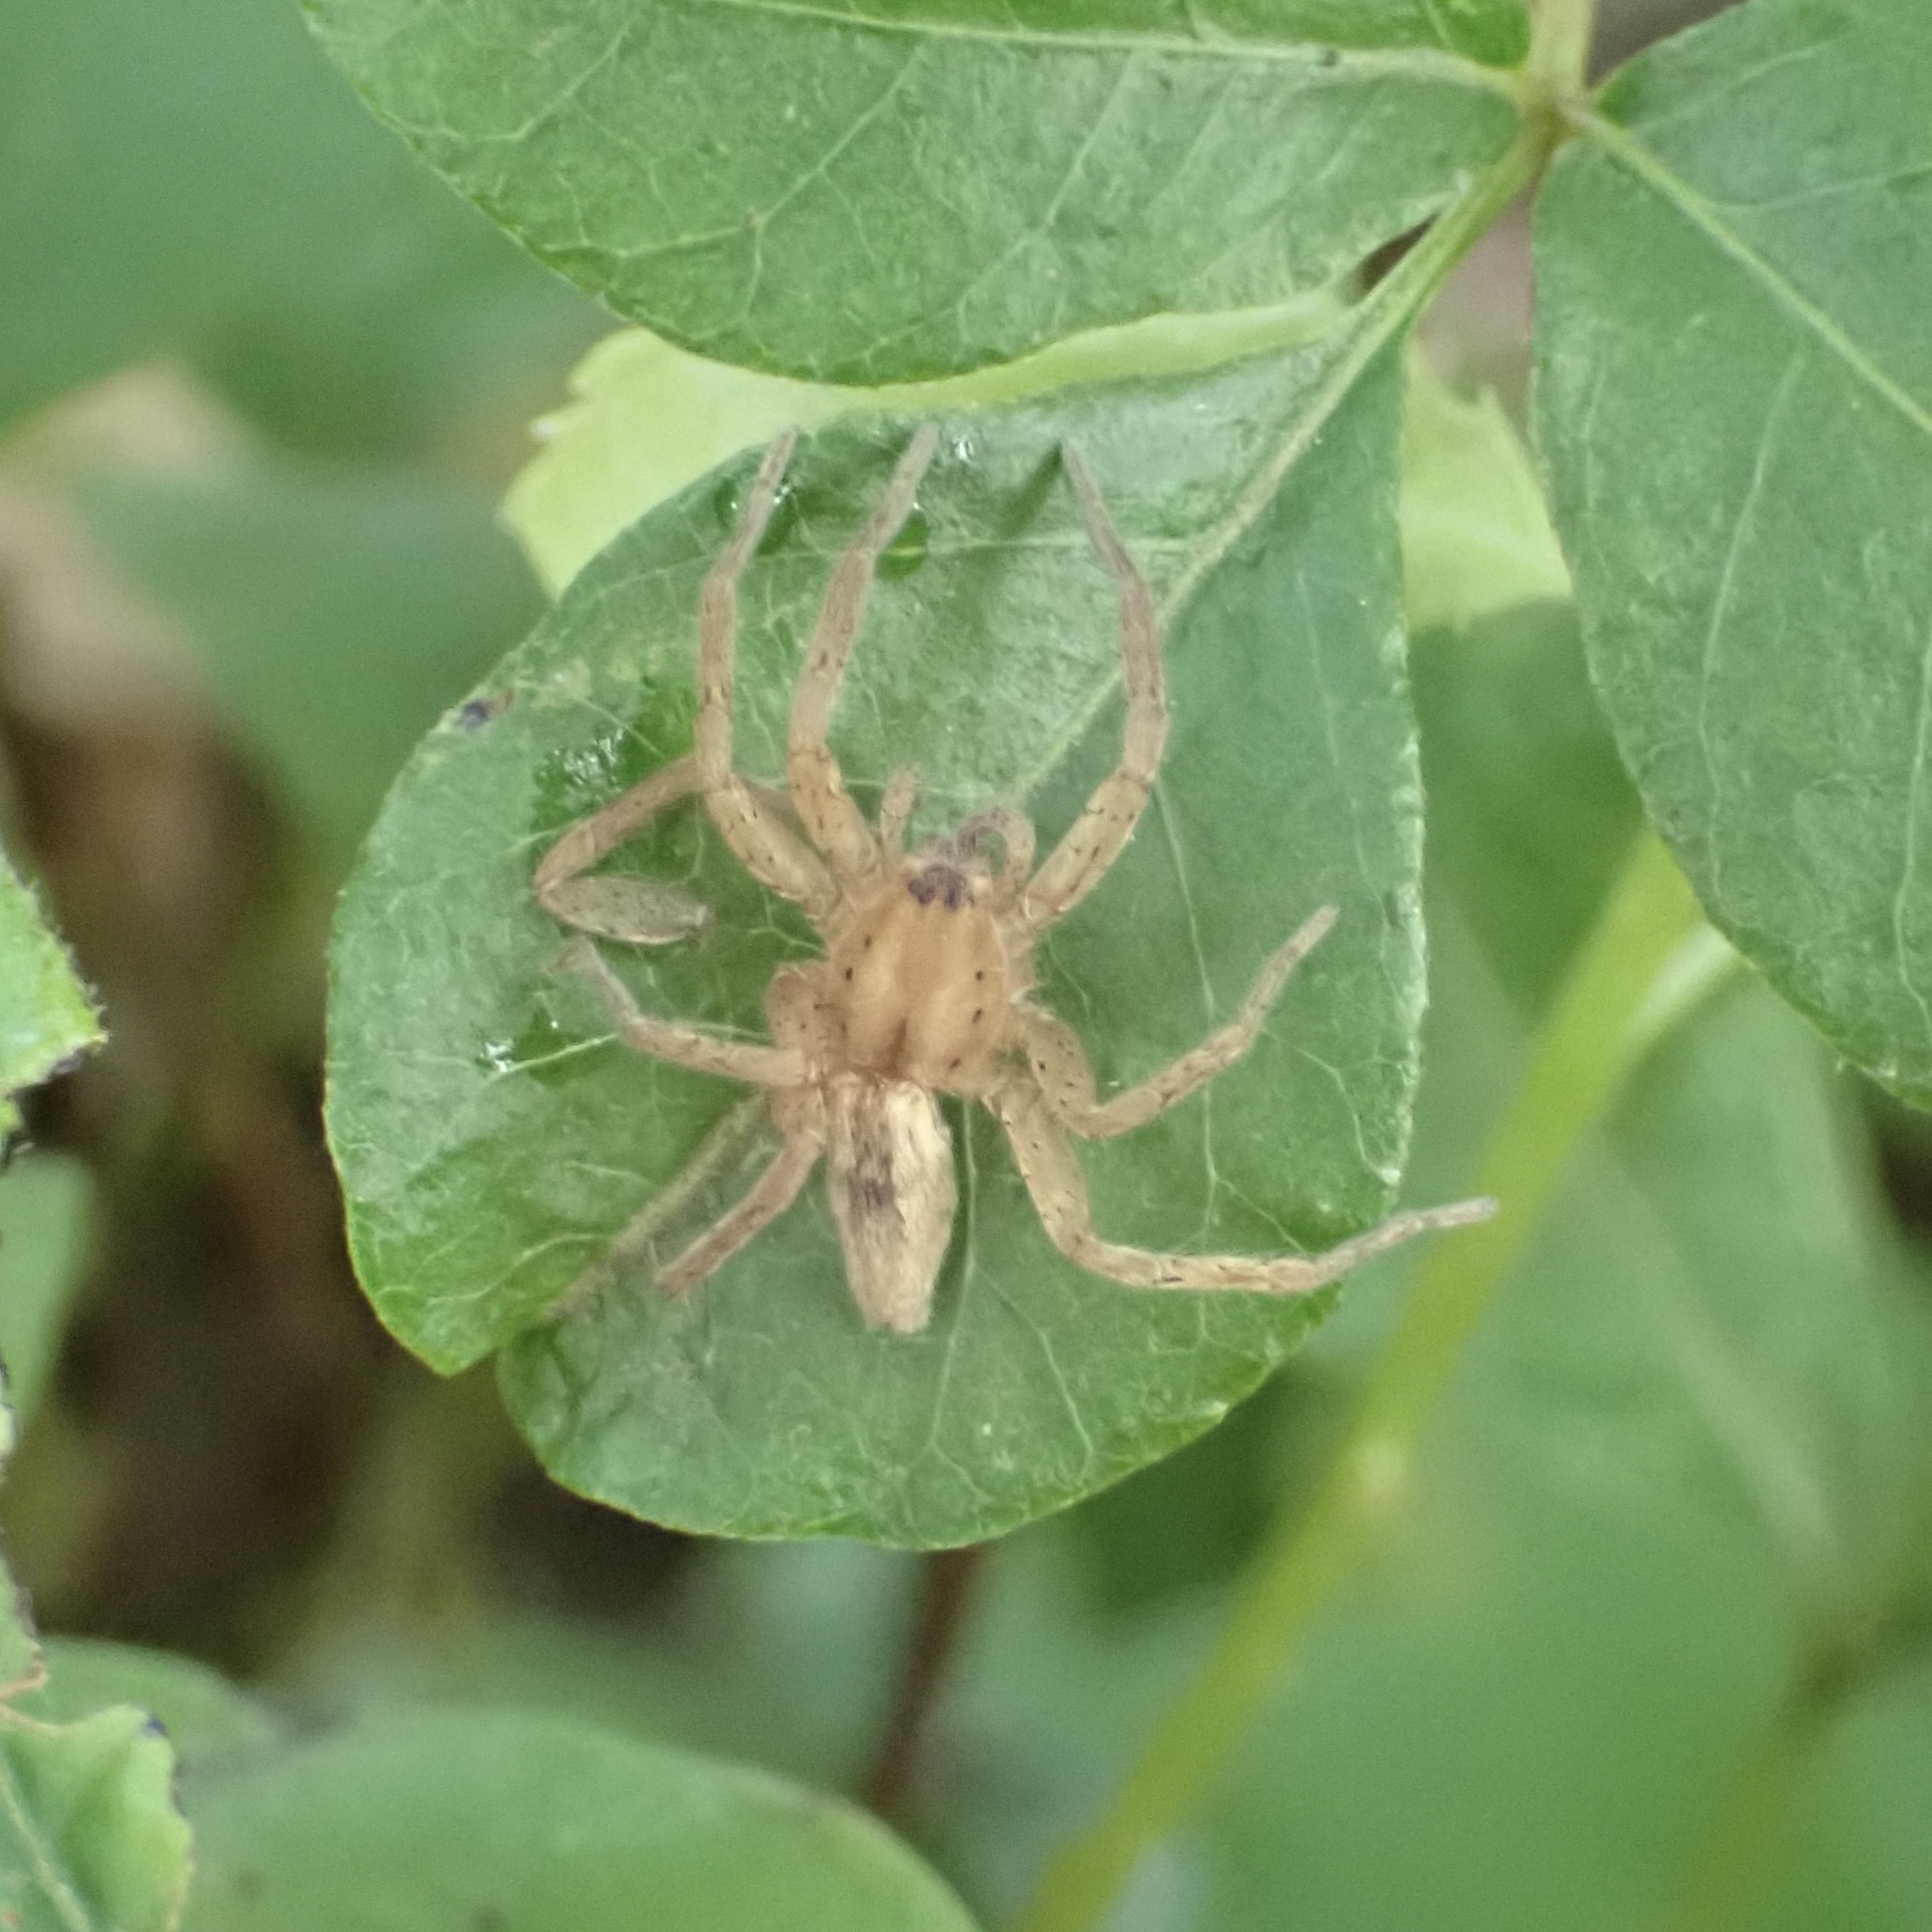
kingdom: Animalia
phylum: Arthropoda
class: Arachnida
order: Araneae
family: Anyphaenidae
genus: Arachosia
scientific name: Arachosia cubana
